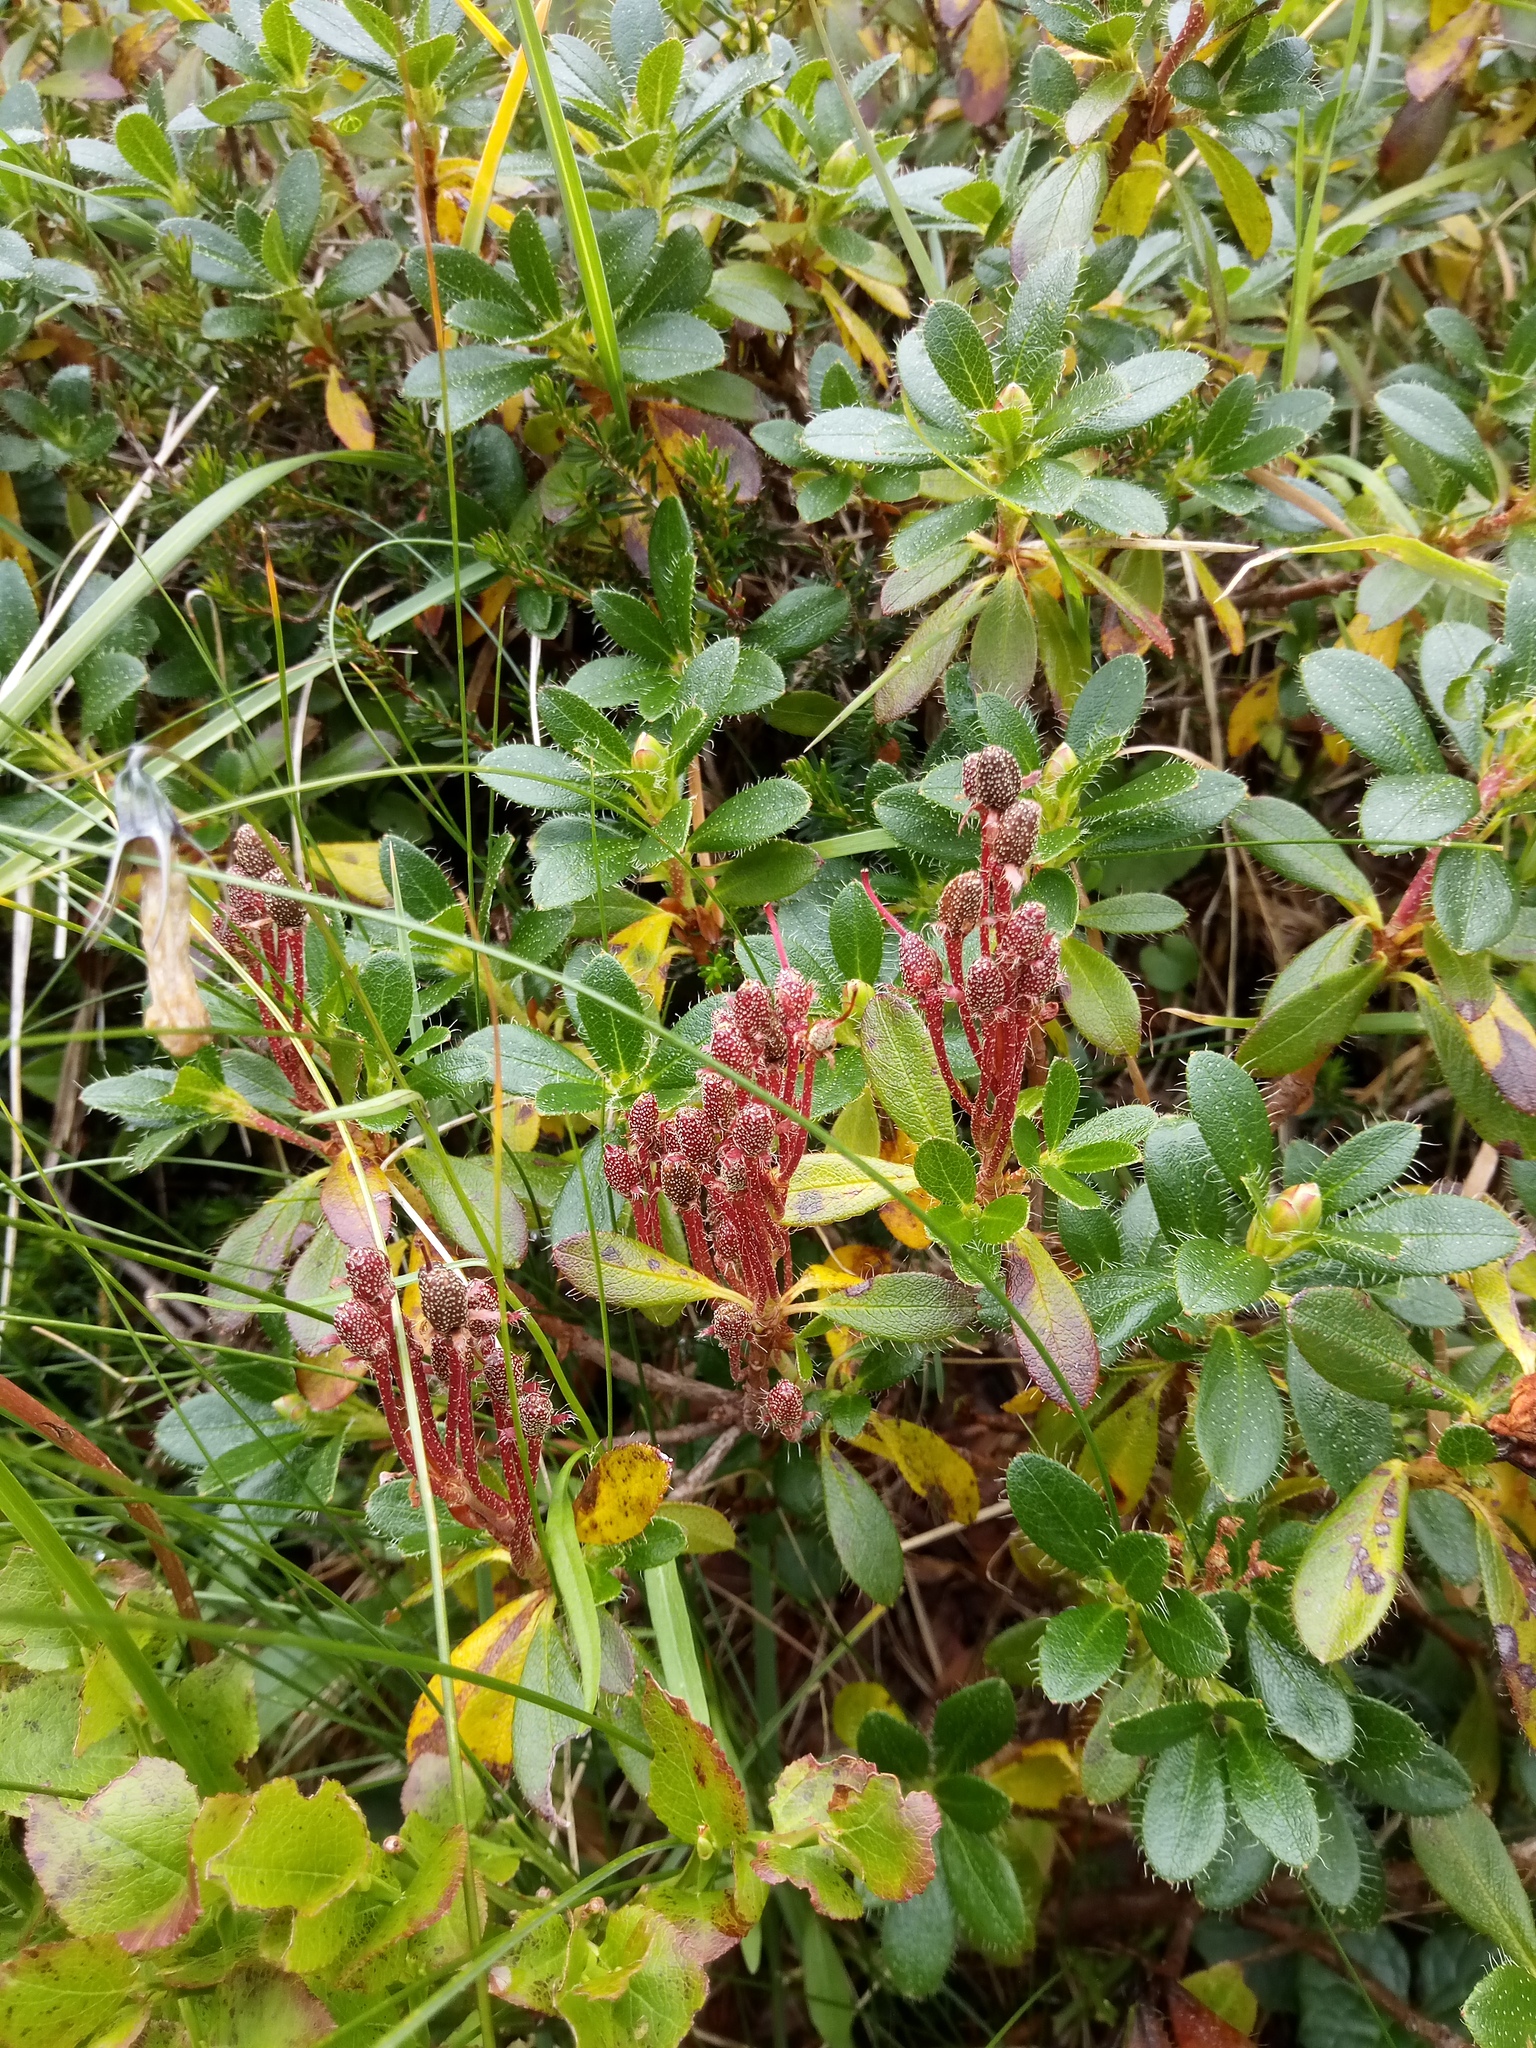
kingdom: Plantae
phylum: Tracheophyta
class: Magnoliopsida
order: Ericales
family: Ericaceae
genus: Rhododendron
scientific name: Rhododendron hirsutum
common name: Hairy alpenrose
